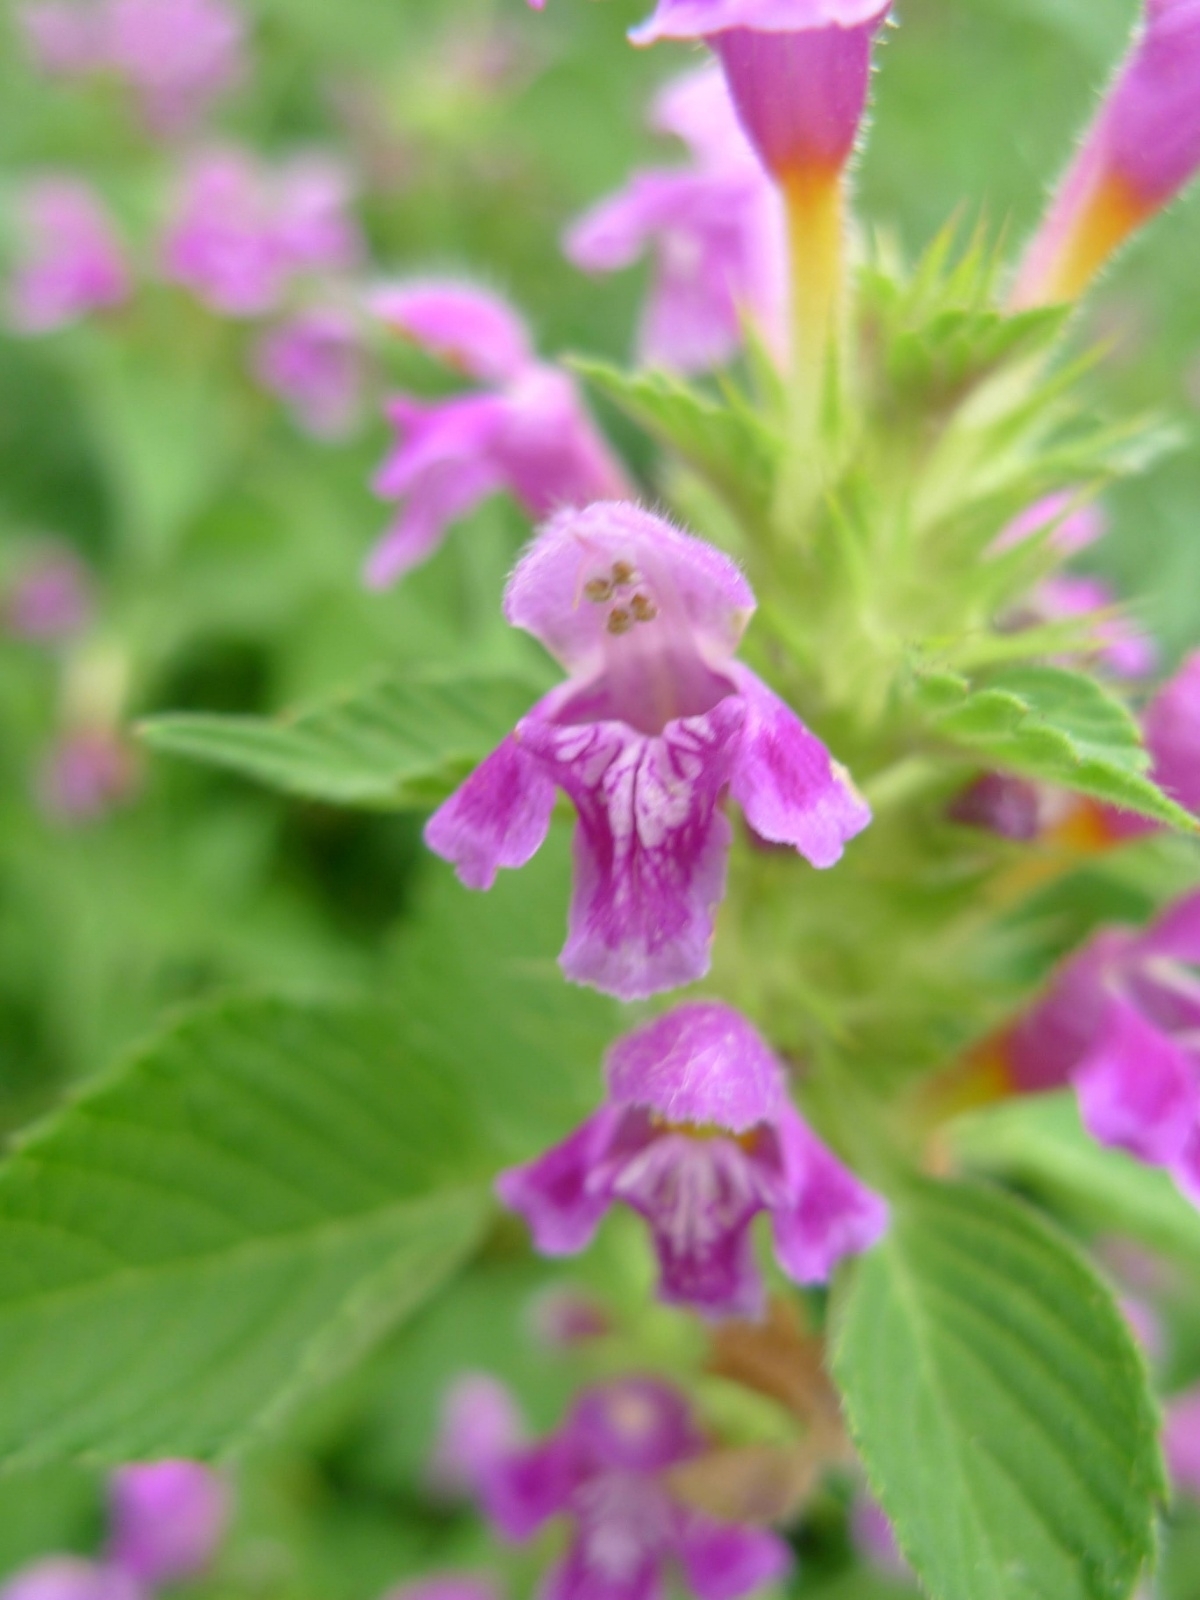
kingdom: Plantae
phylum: Tracheophyta
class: Magnoliopsida
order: Lamiales
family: Lamiaceae
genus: Galeopsis
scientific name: Galeopsis pubescens
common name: Downy hemp-nettle
